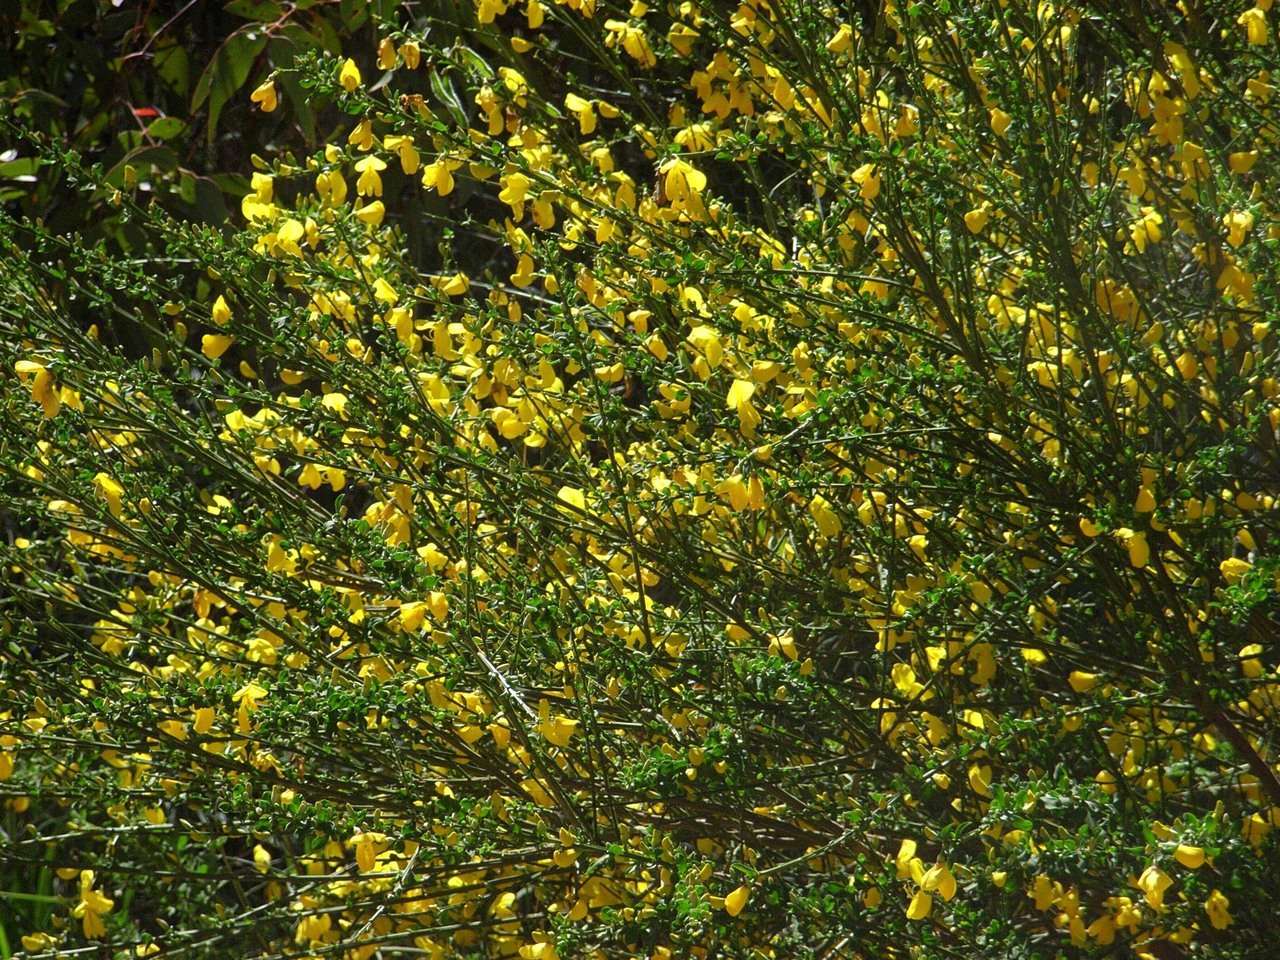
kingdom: Plantae
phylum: Tracheophyta
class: Magnoliopsida
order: Fabales
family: Fabaceae
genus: Cytisus
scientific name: Cytisus scoparius
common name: Scotch broom
